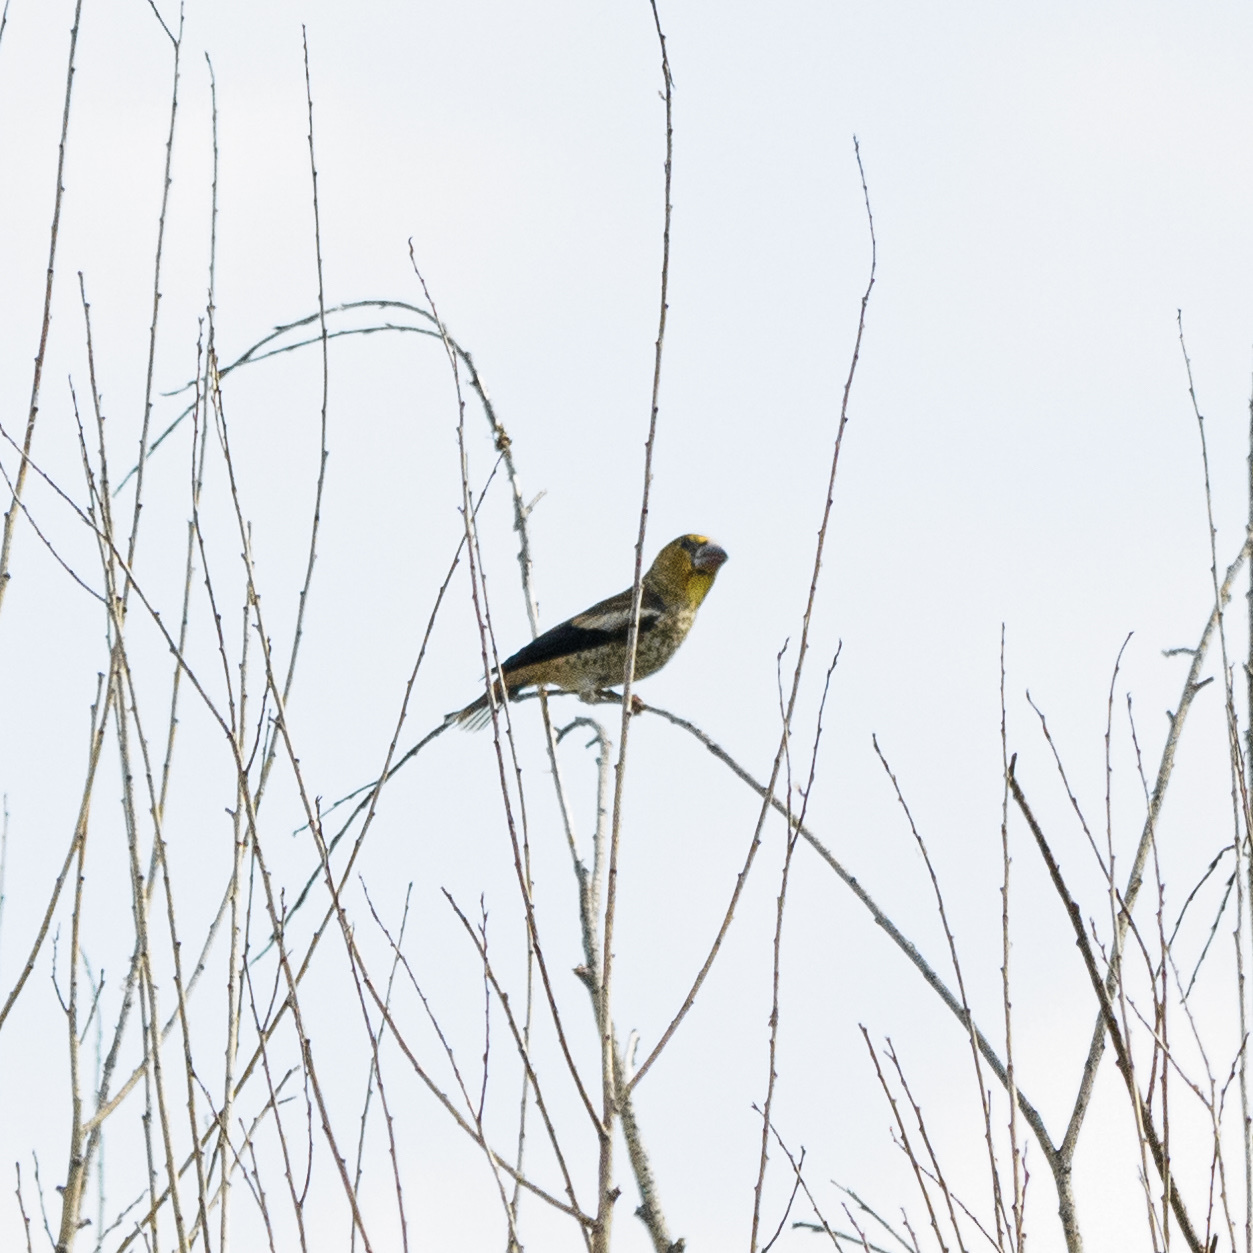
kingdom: Animalia
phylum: Chordata
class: Aves
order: Passeriformes
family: Fringillidae
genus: Coccothraustes
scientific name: Coccothraustes coccothraustes
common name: Hawfinch
